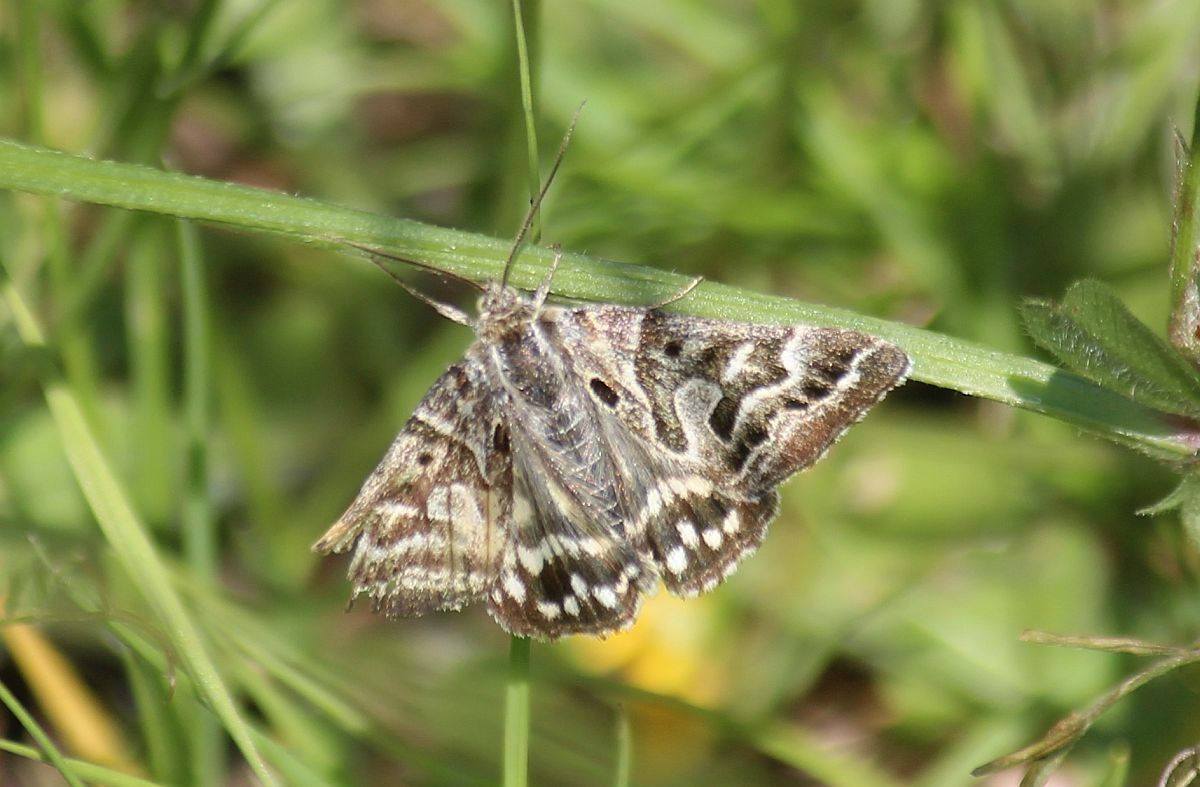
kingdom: Animalia
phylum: Arthropoda
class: Insecta
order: Lepidoptera
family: Erebidae
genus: Callistege
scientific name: Callistege mi
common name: Mother shipton
